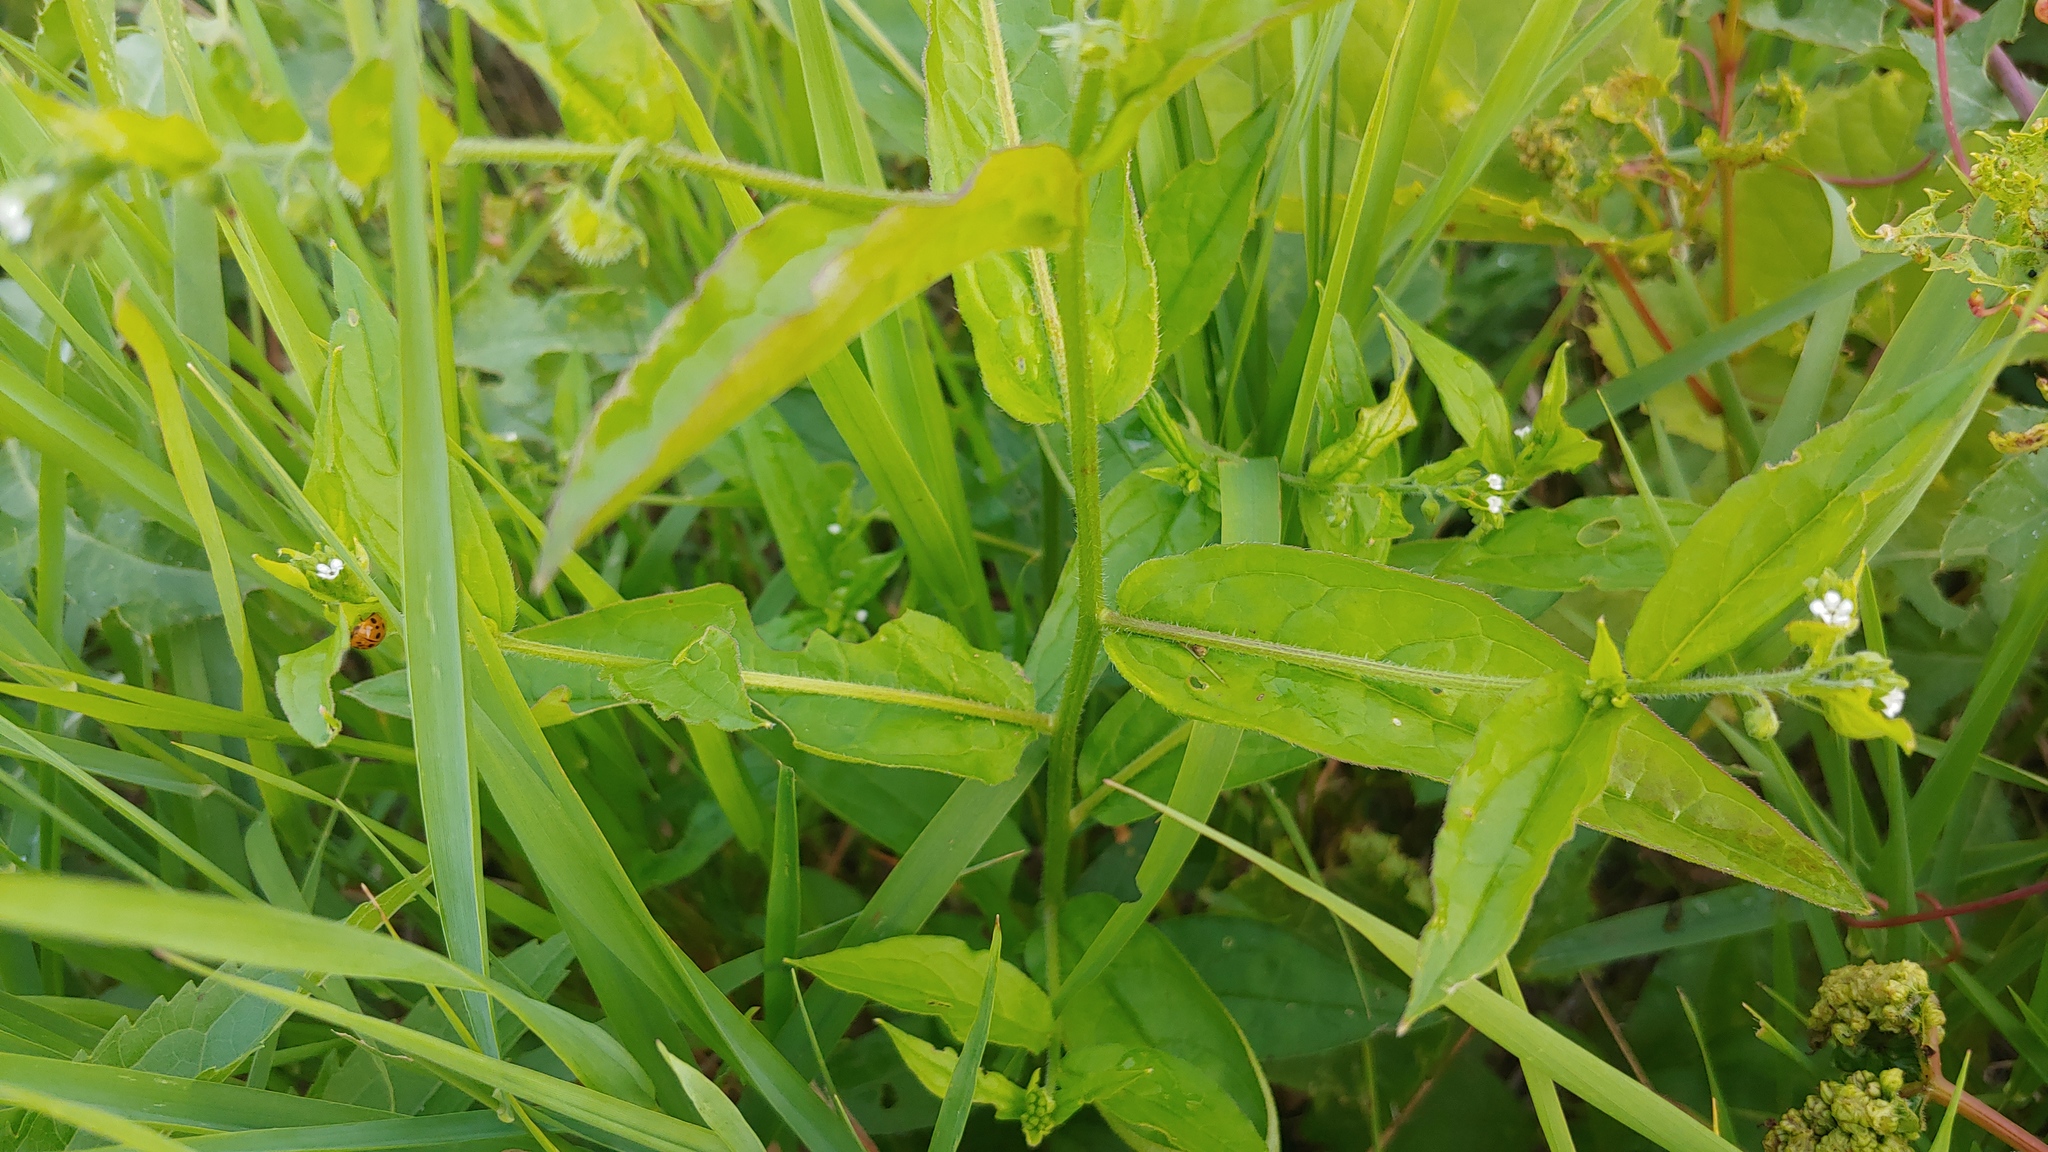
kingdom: Plantae
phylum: Tracheophyta
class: Magnoliopsida
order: Boraginales
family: Boraginaceae
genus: Hackelia
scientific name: Hackelia virginiana
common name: Beggar's-lice
